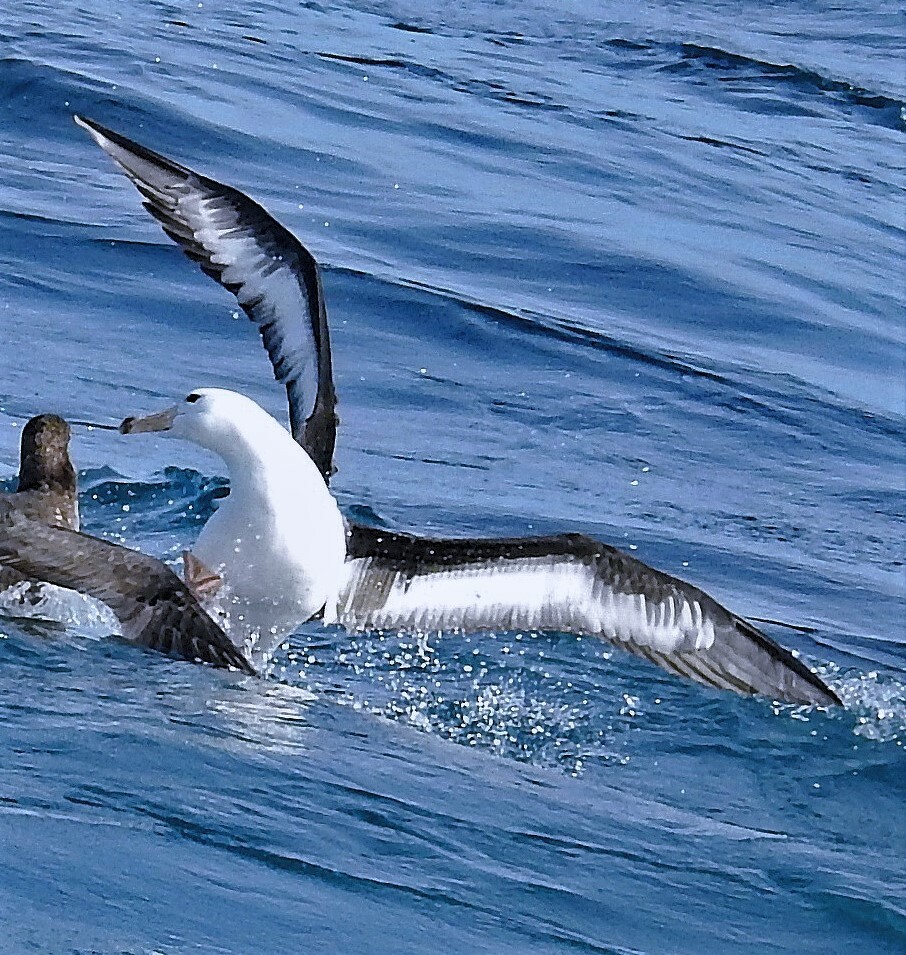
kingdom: Animalia
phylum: Chordata
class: Aves
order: Procellariiformes
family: Diomedeidae
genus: Thalassarche
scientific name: Thalassarche melanophris
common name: Black-browed albatross
